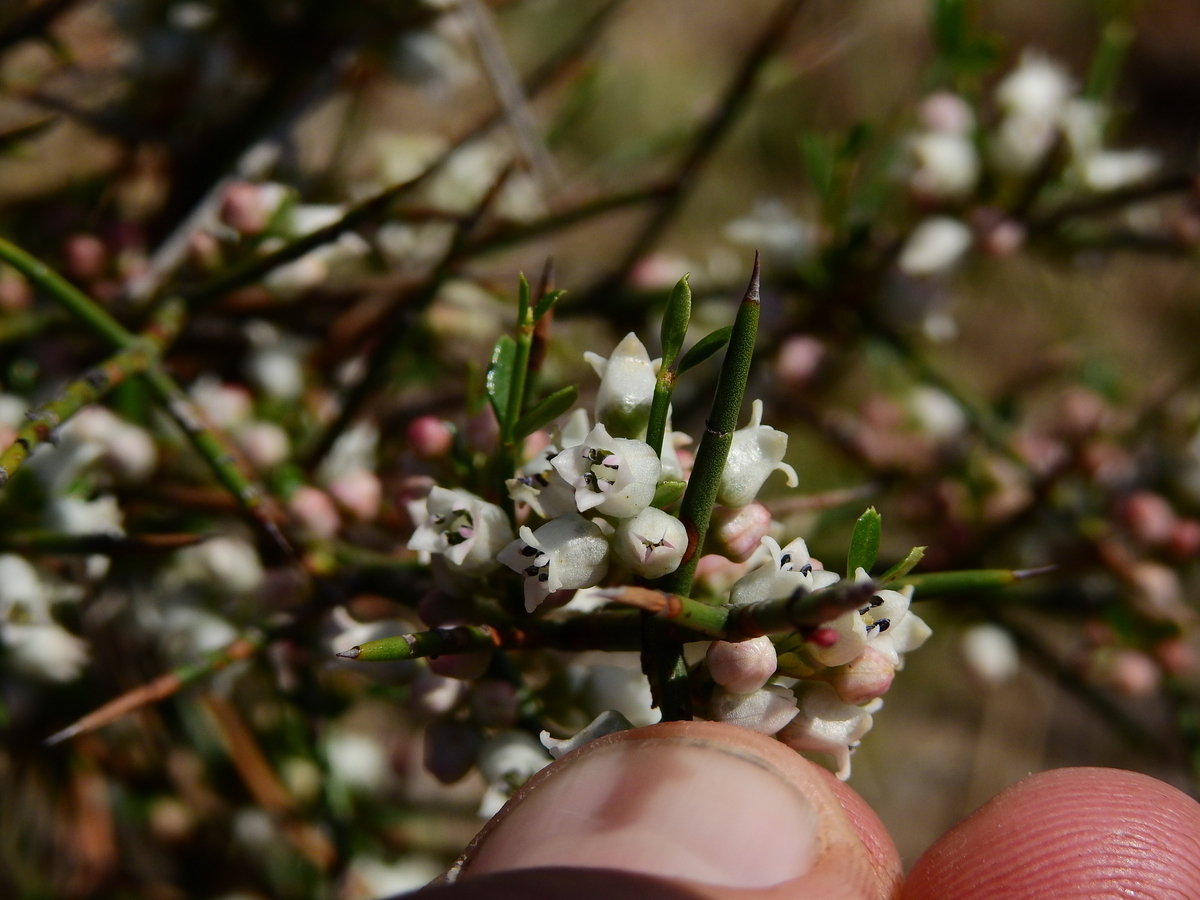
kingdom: Plantae
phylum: Tracheophyta
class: Magnoliopsida
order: Rosales
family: Rhamnaceae
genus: Discaria
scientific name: Discaria americana
